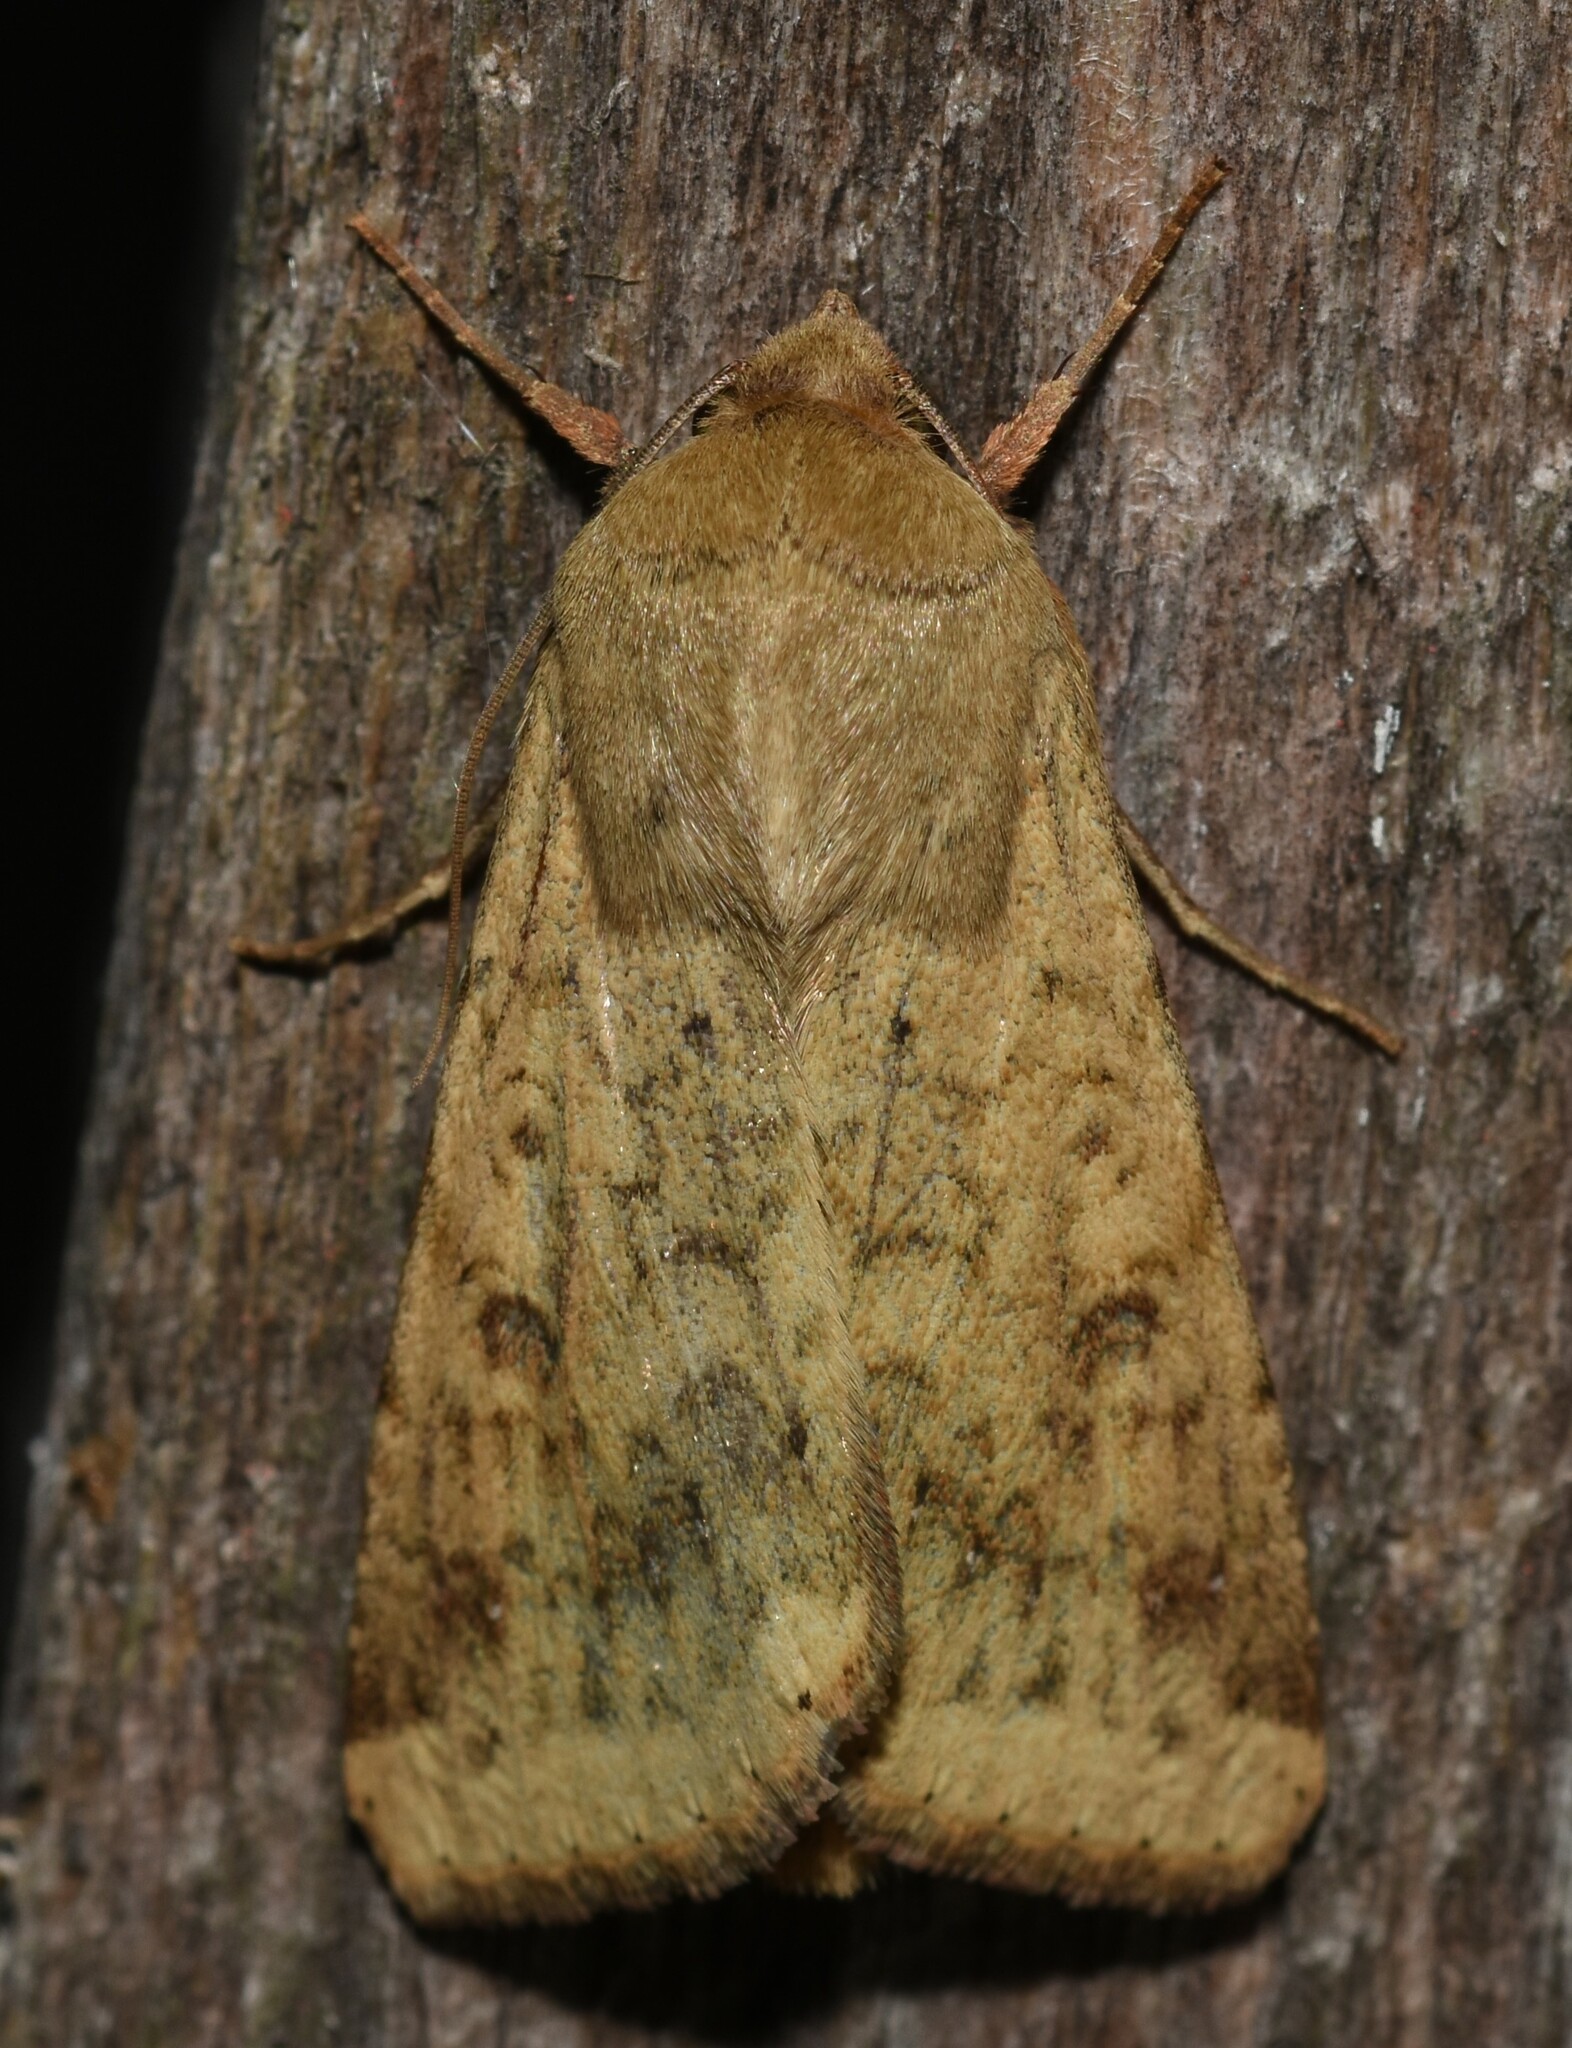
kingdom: Animalia
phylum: Arthropoda
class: Insecta
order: Lepidoptera
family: Noctuidae
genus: Helicoverpa
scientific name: Helicoverpa zea
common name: Bollworm
